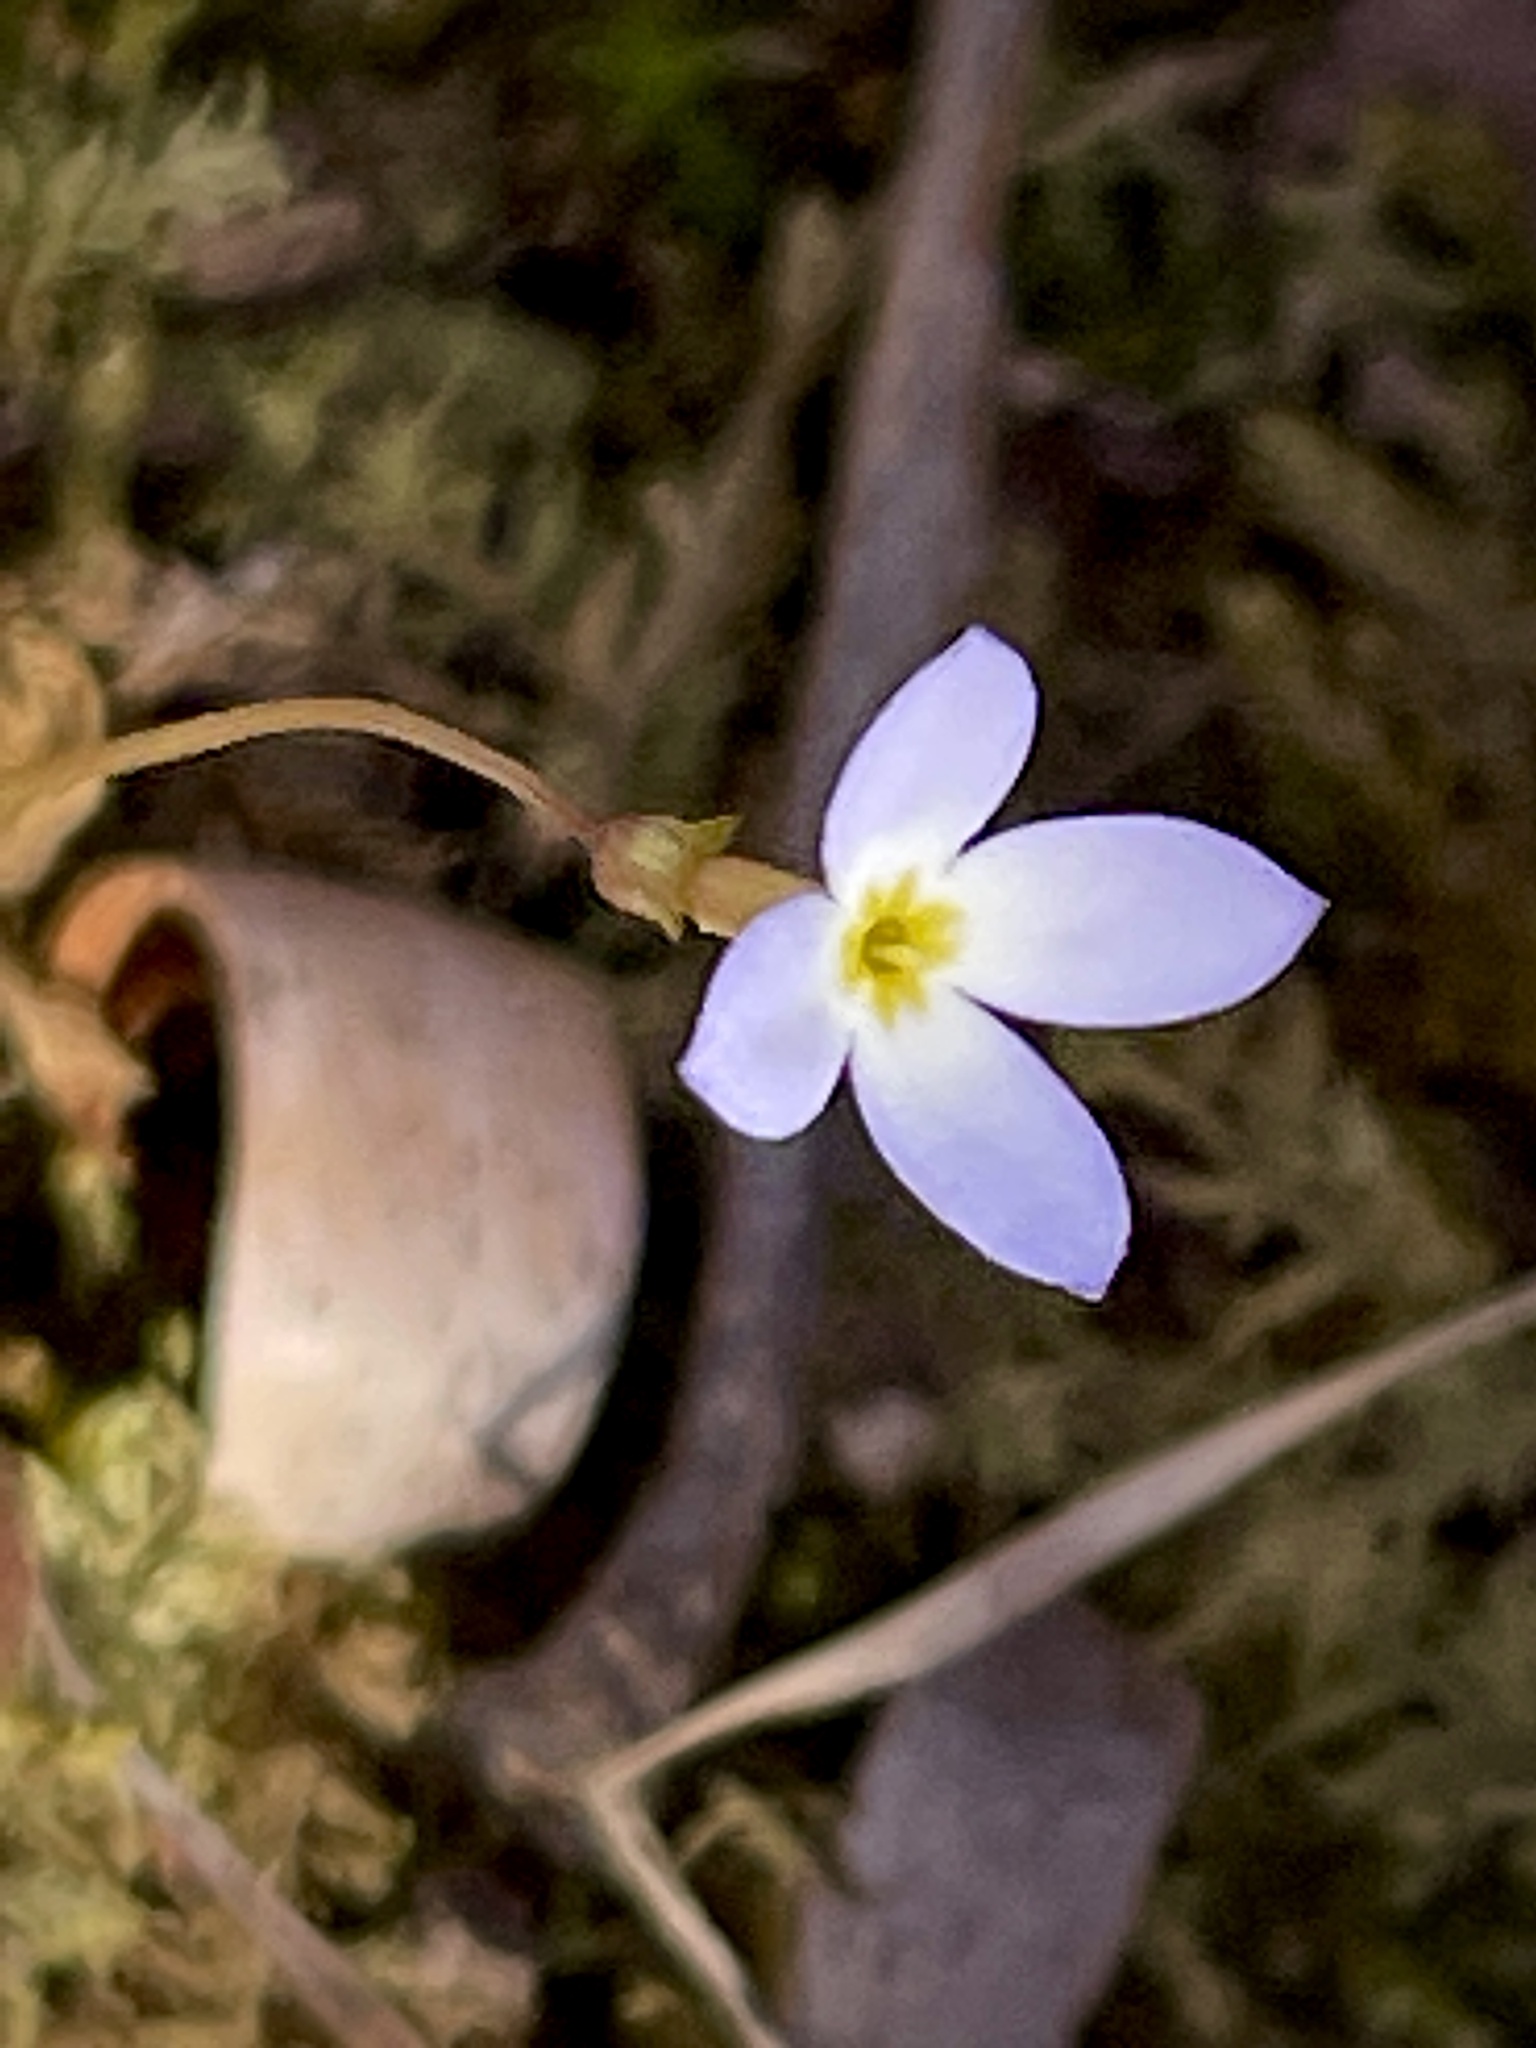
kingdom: Plantae
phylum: Tracheophyta
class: Magnoliopsida
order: Gentianales
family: Rubiaceae
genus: Houstonia
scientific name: Houstonia caerulea
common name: Bluets
